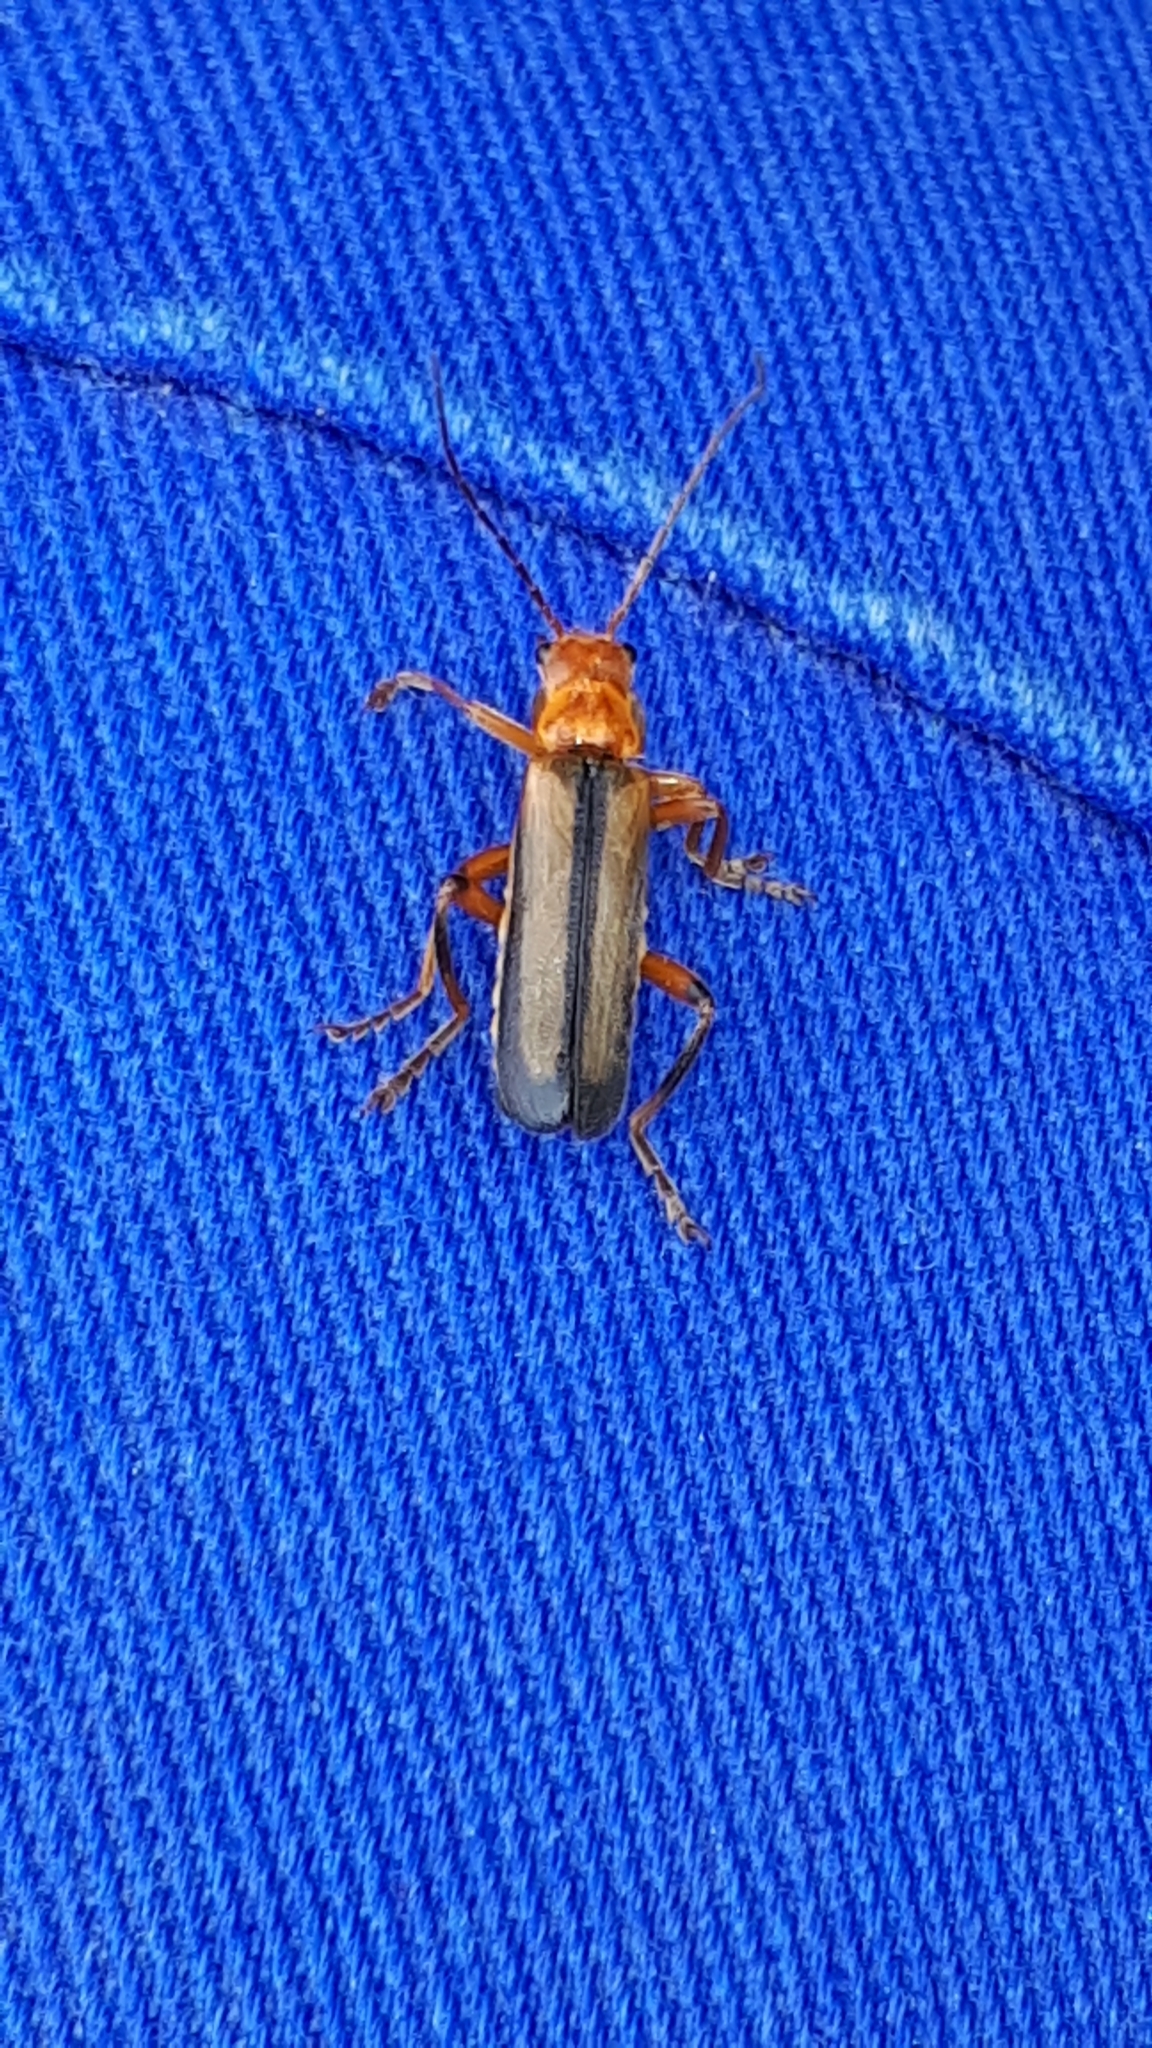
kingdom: Animalia
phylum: Arthropoda
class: Insecta
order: Coleoptera
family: Cantharidae
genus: Metacantharis
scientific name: Metacantharis discoidea
